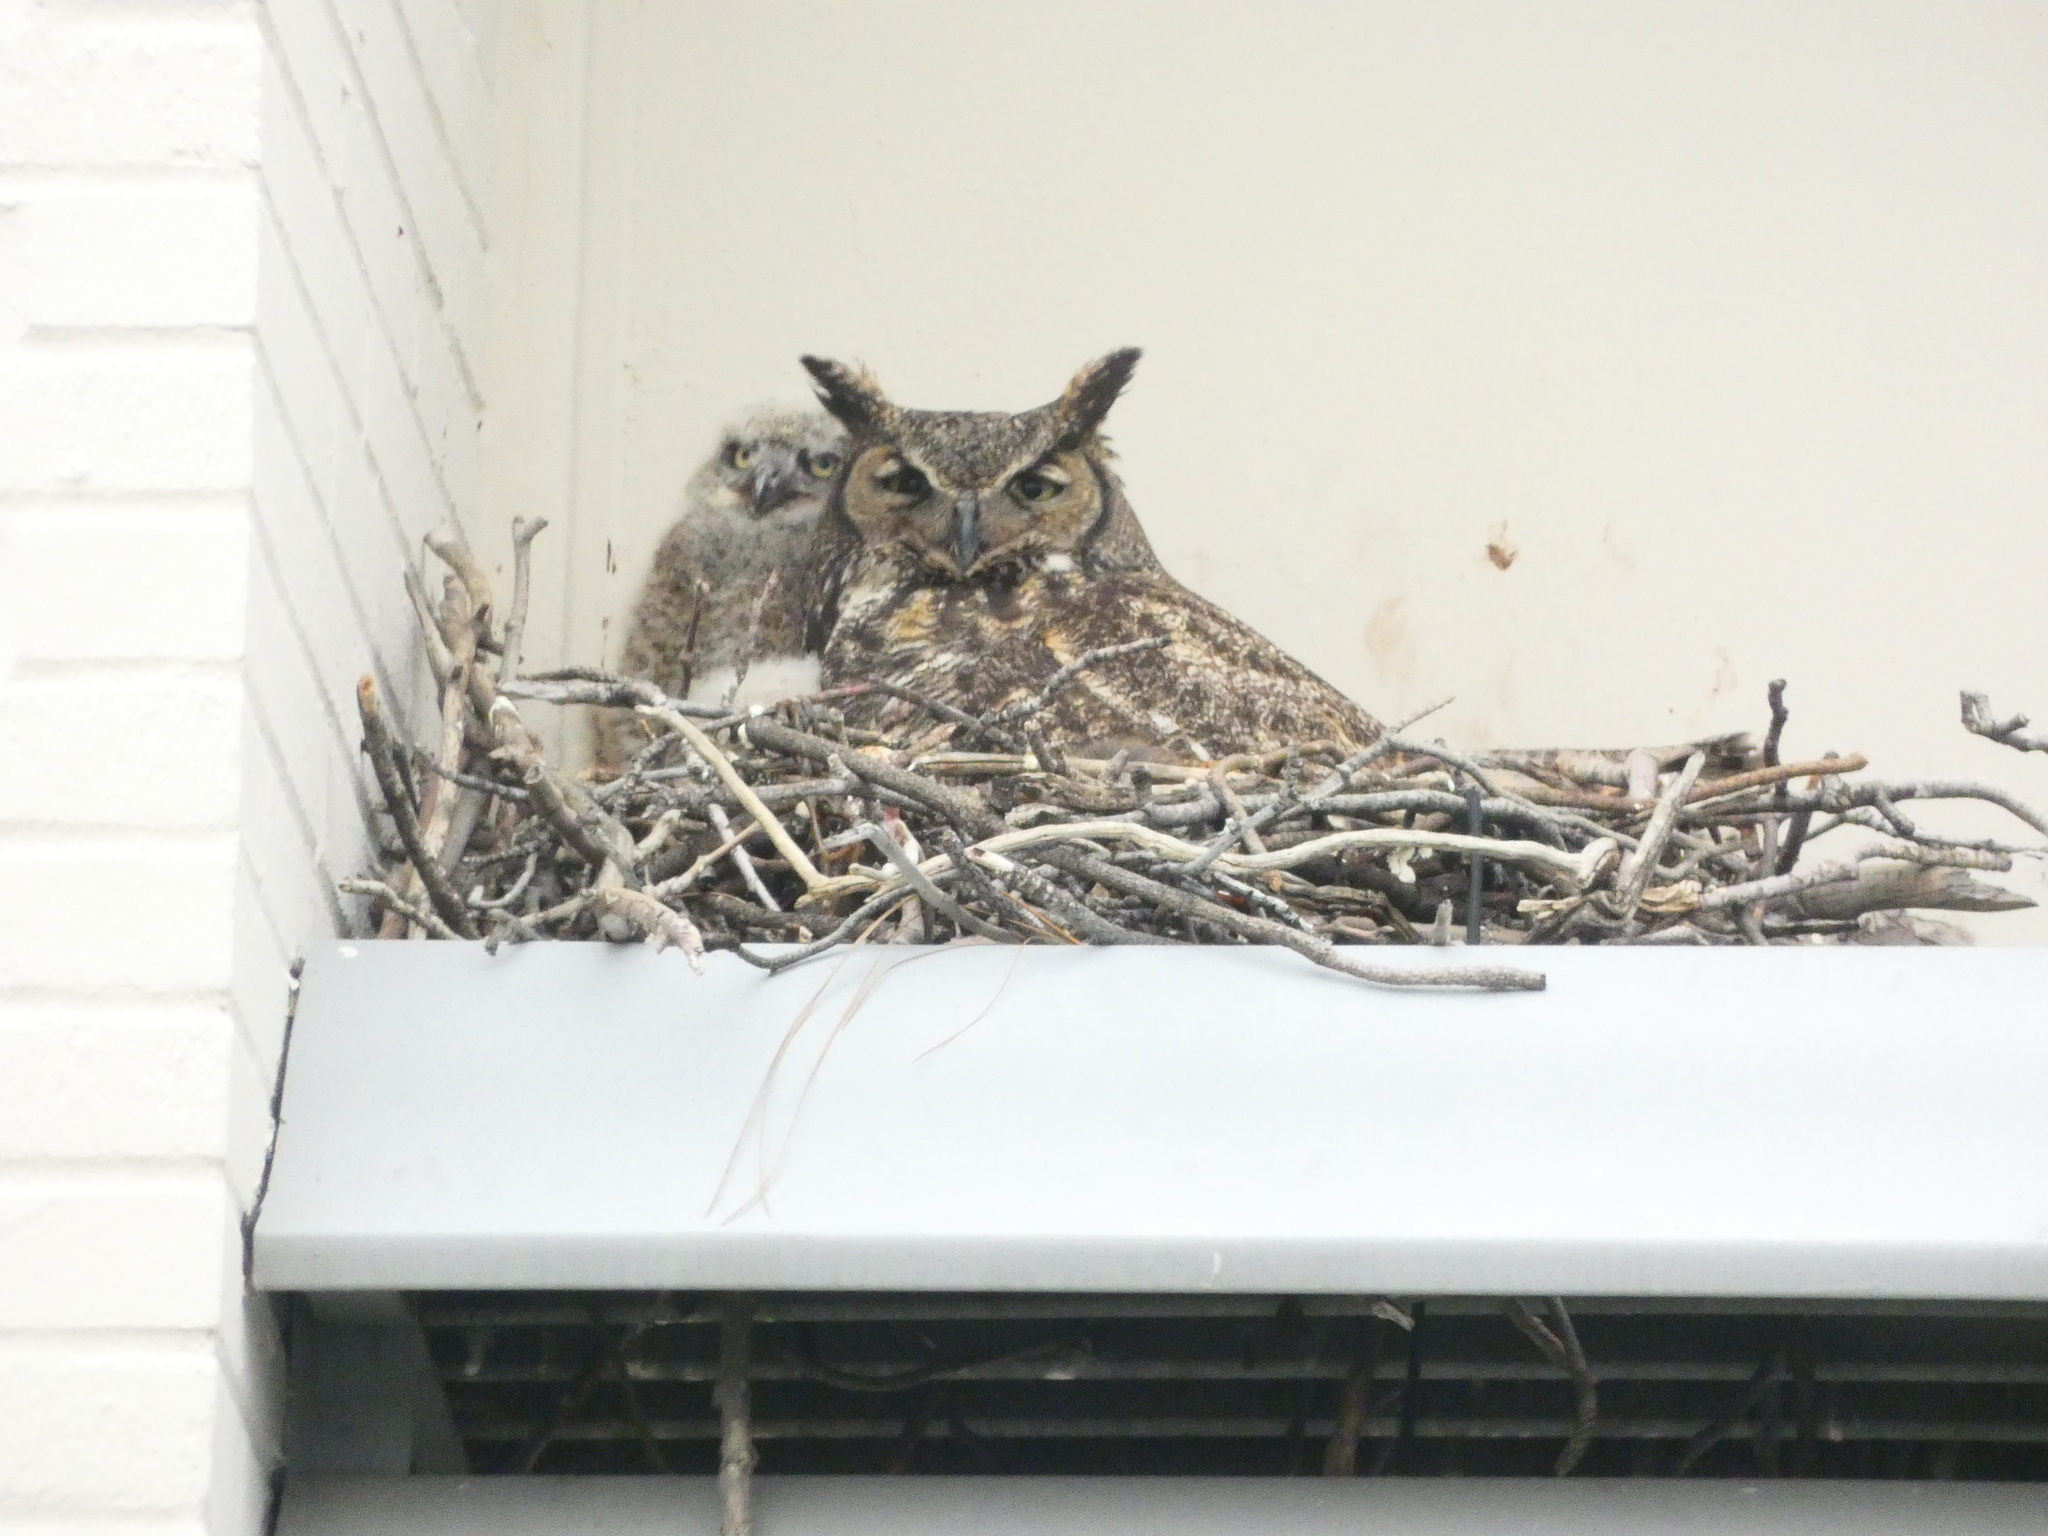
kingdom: Animalia
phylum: Chordata
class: Aves
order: Strigiformes
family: Strigidae
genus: Bubo
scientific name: Bubo virginianus
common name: Great horned owl
